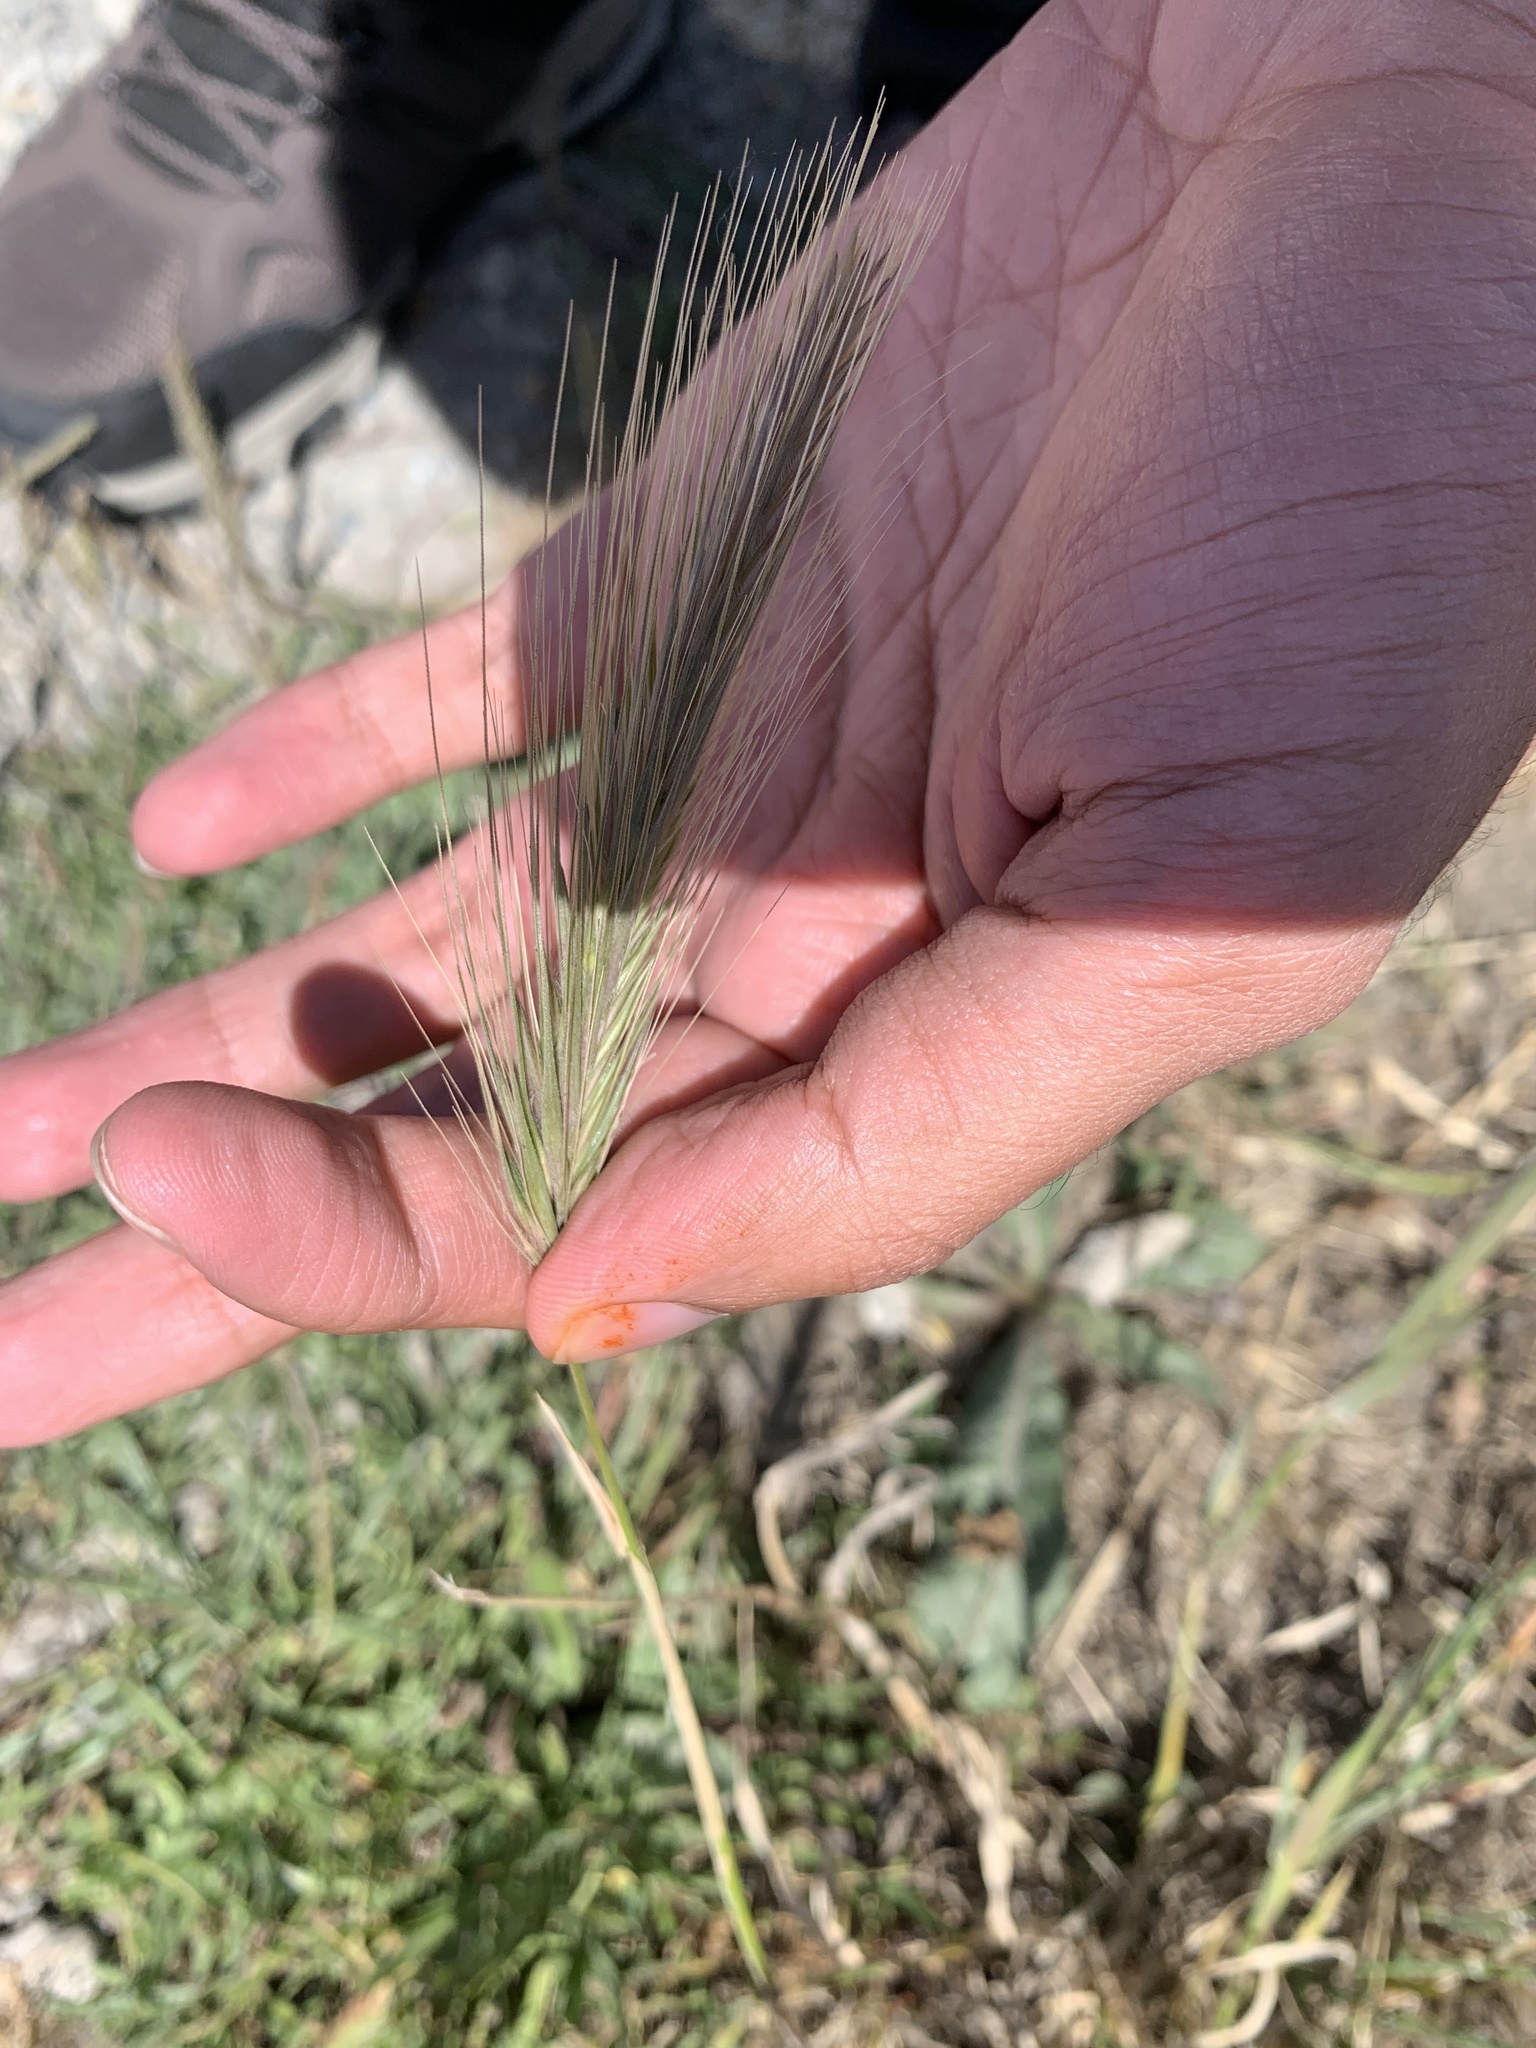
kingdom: Plantae
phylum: Tracheophyta
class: Liliopsida
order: Poales
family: Poaceae
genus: Hordeum
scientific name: Hordeum jubatum
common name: Foxtail barley
